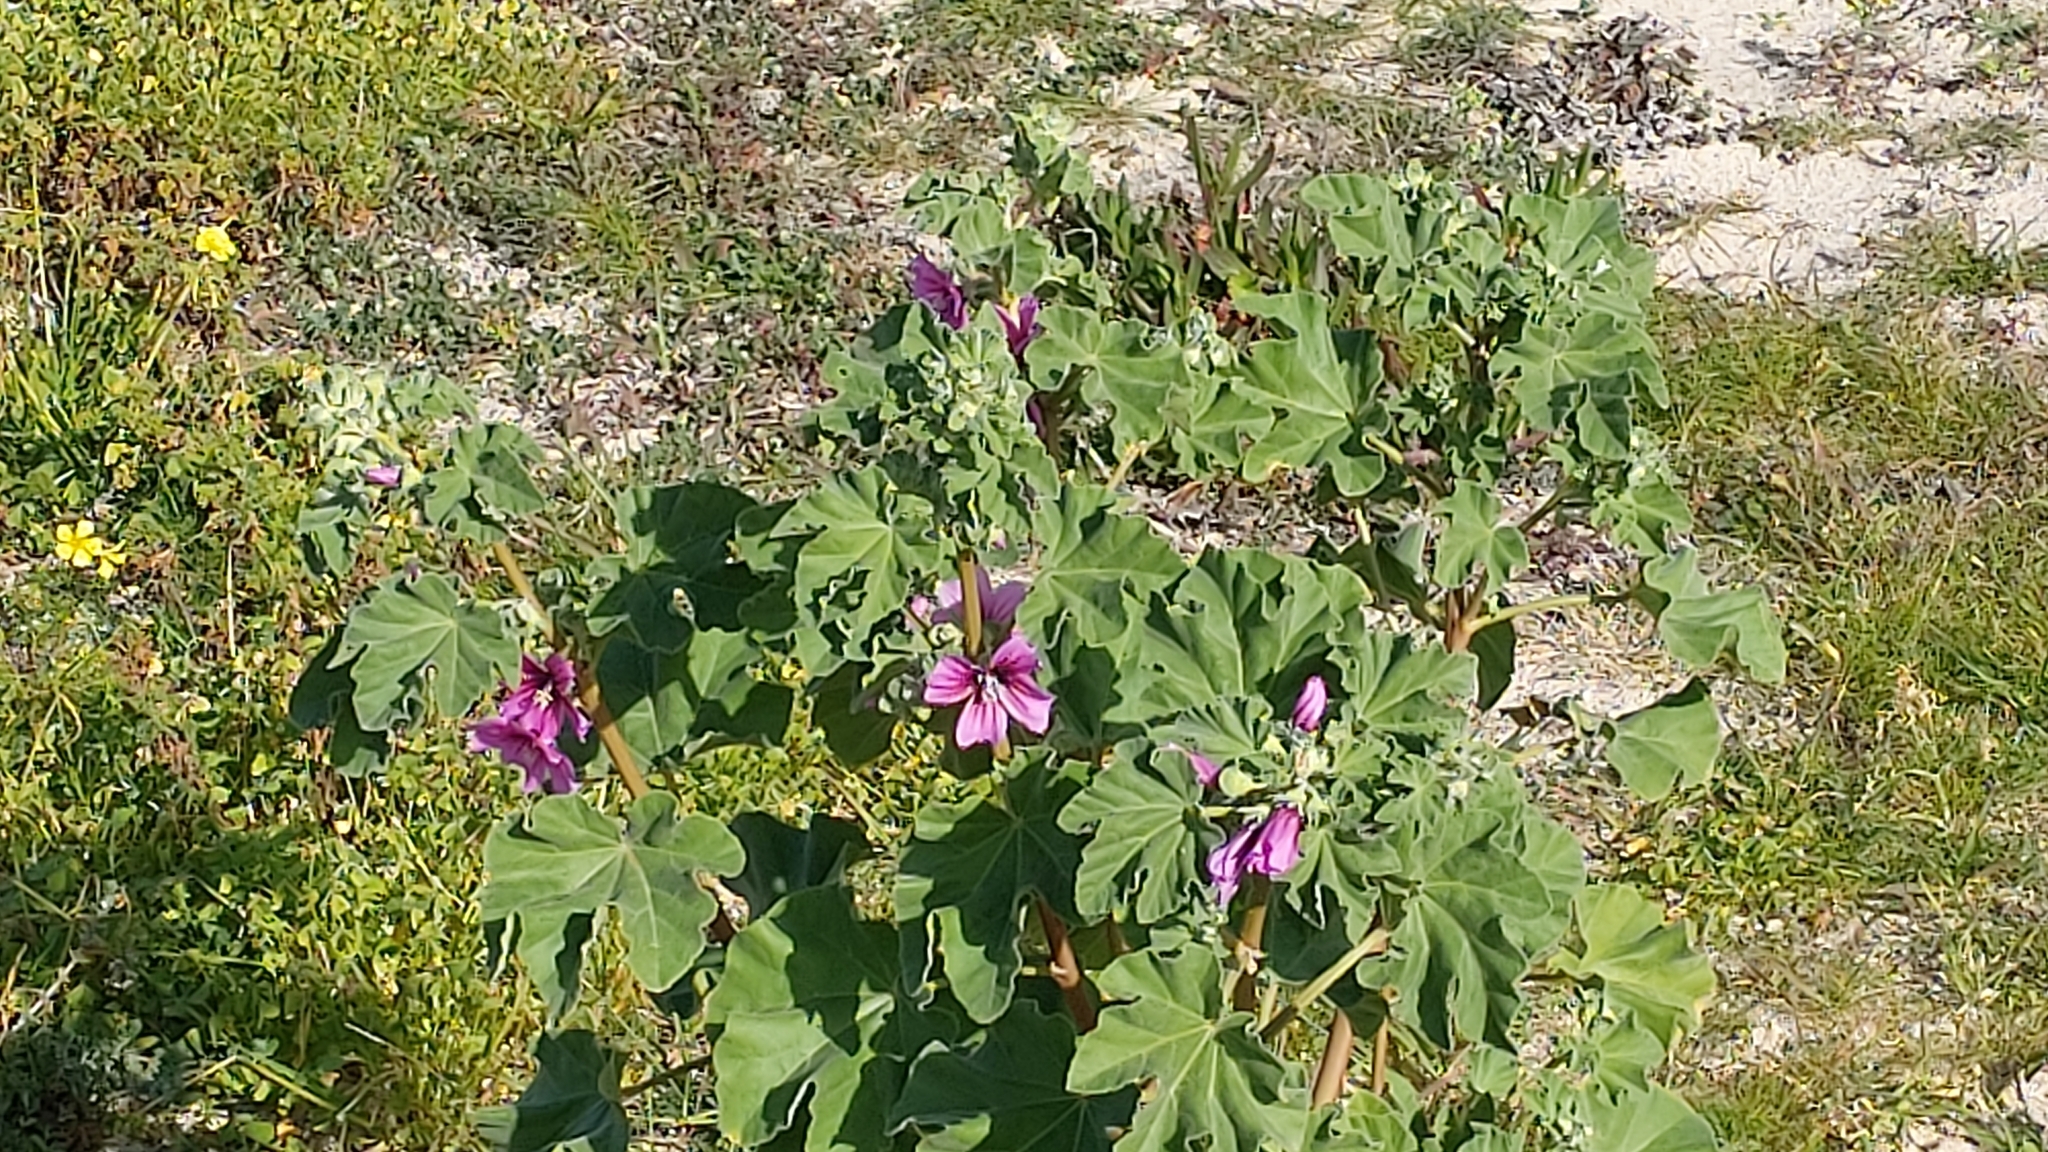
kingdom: Plantae
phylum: Tracheophyta
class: Magnoliopsida
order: Malvales
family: Malvaceae
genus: Malva
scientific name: Malva arborea
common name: Tree mallow
